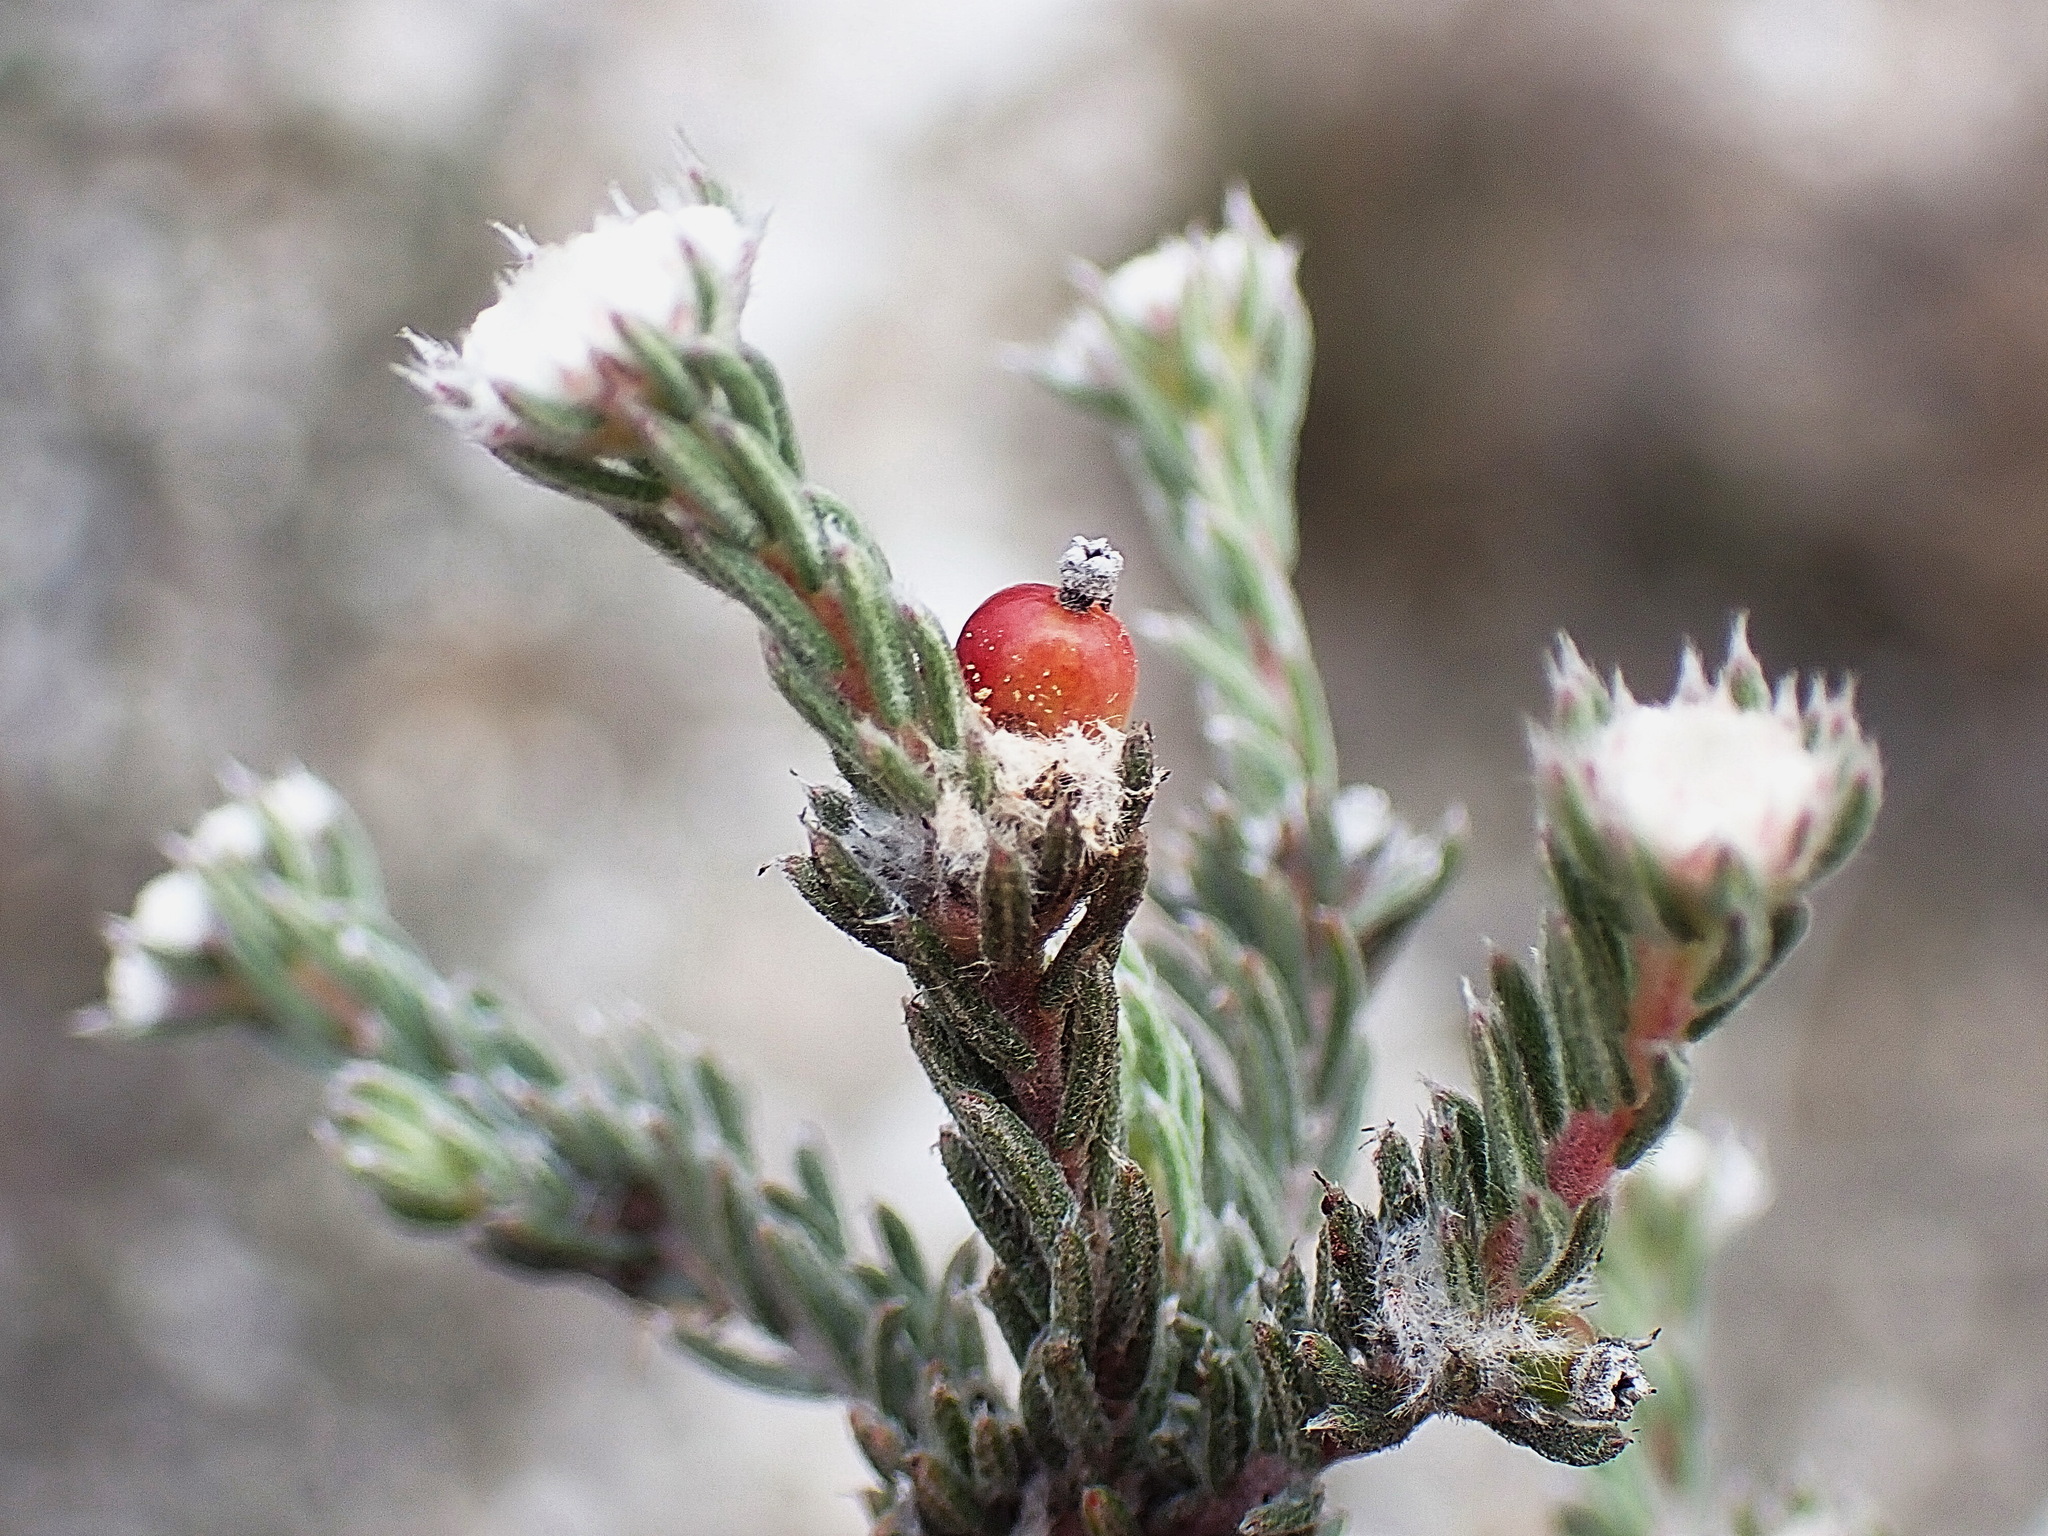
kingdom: Plantae
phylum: Tracheophyta
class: Magnoliopsida
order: Rosales
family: Rhamnaceae
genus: Phylica
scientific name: Phylica karroica
